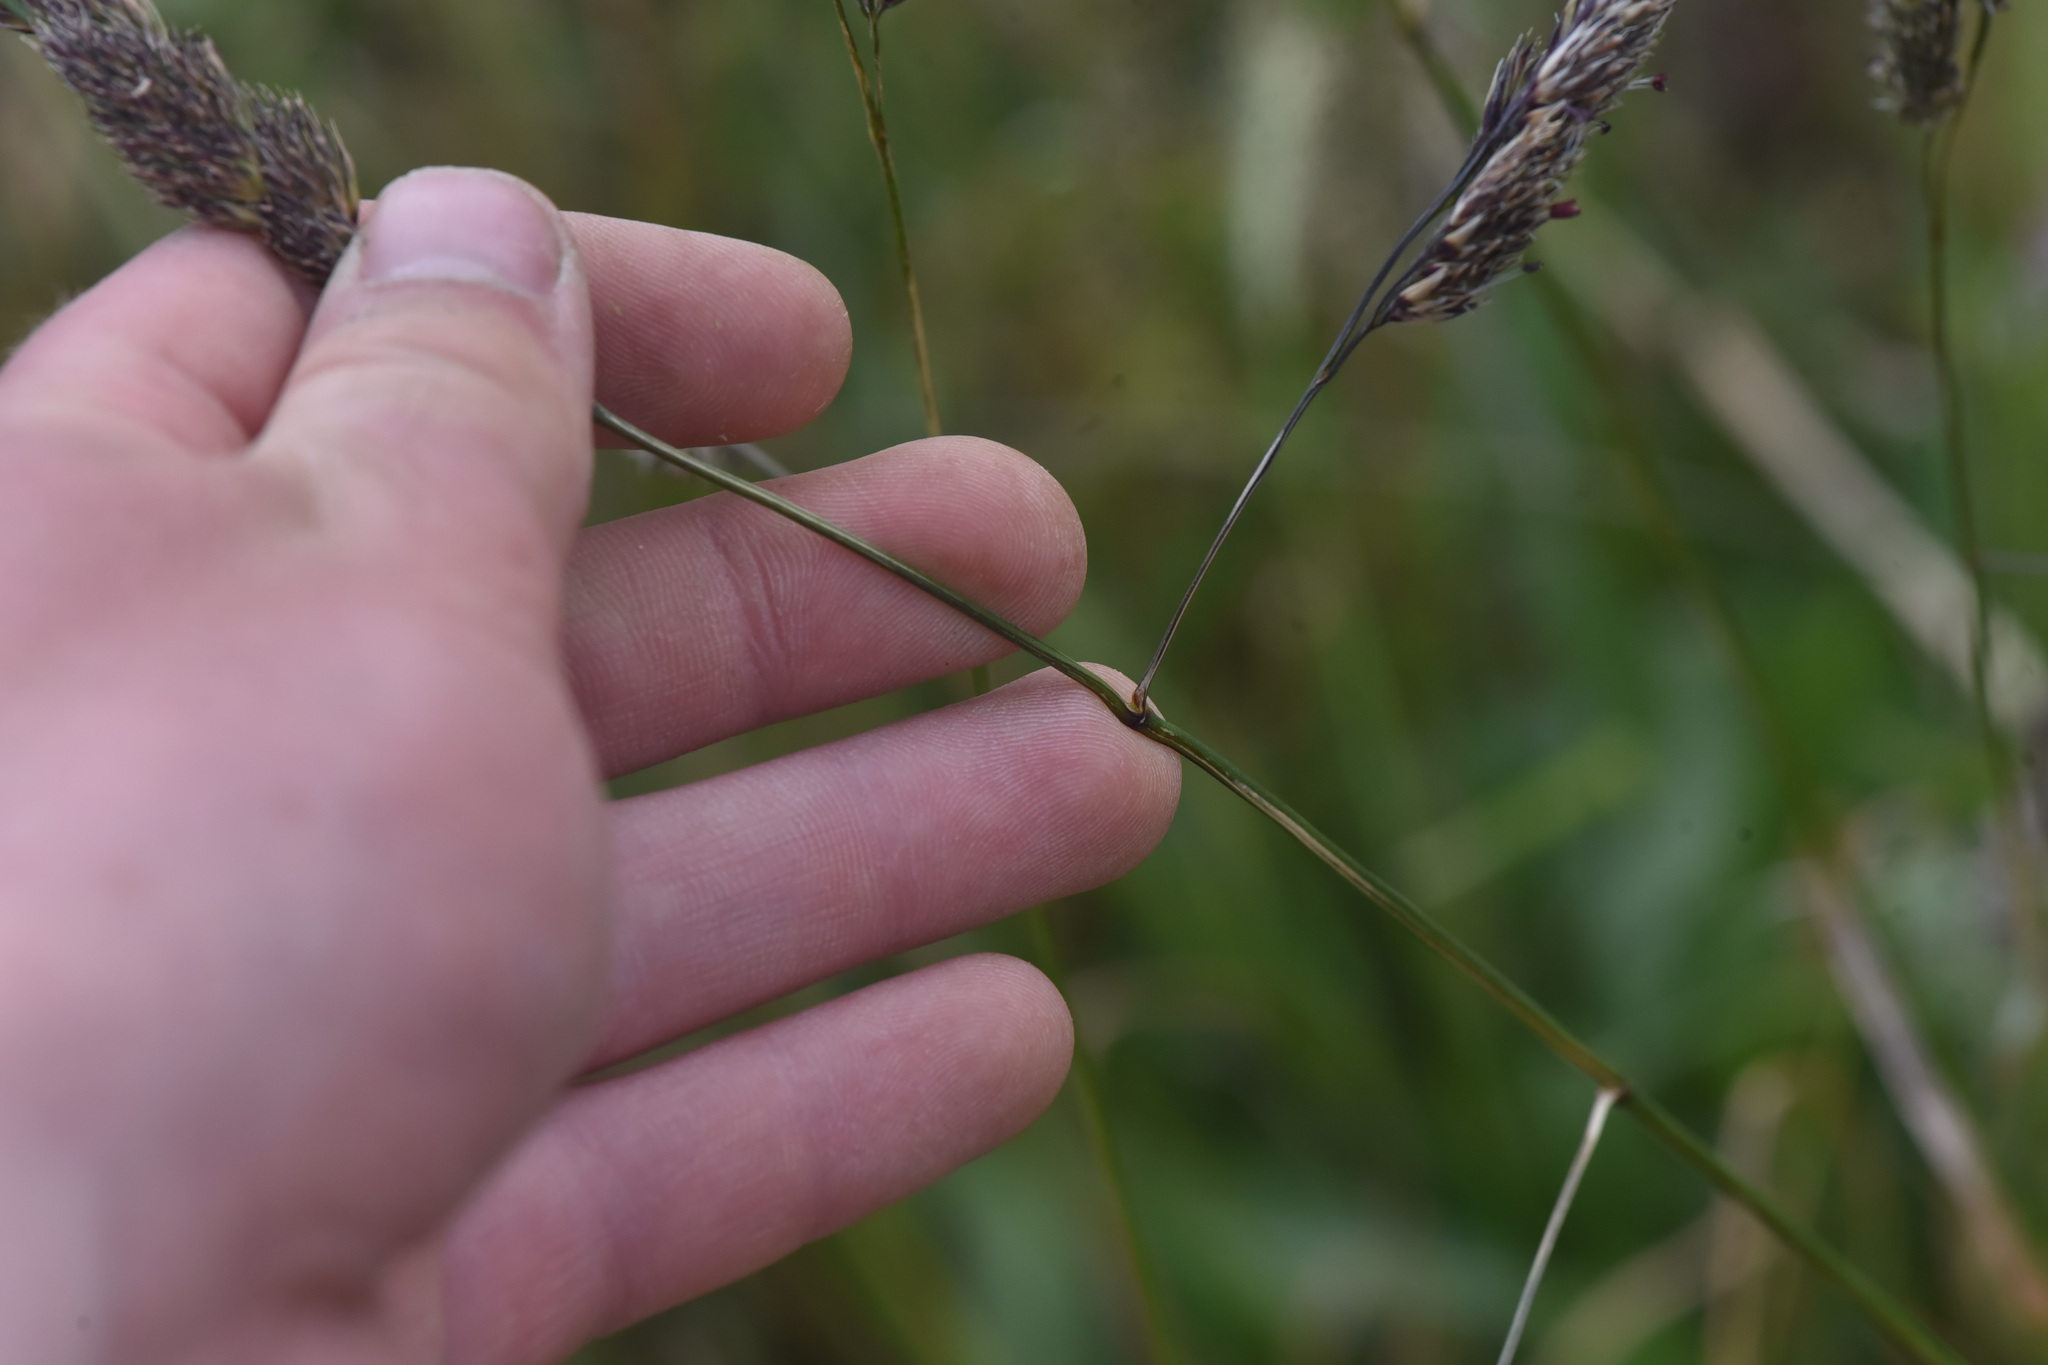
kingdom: Plantae
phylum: Tracheophyta
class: Liliopsida
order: Poales
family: Poaceae
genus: Dactylis
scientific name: Dactylis glomerata
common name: Orchardgrass
